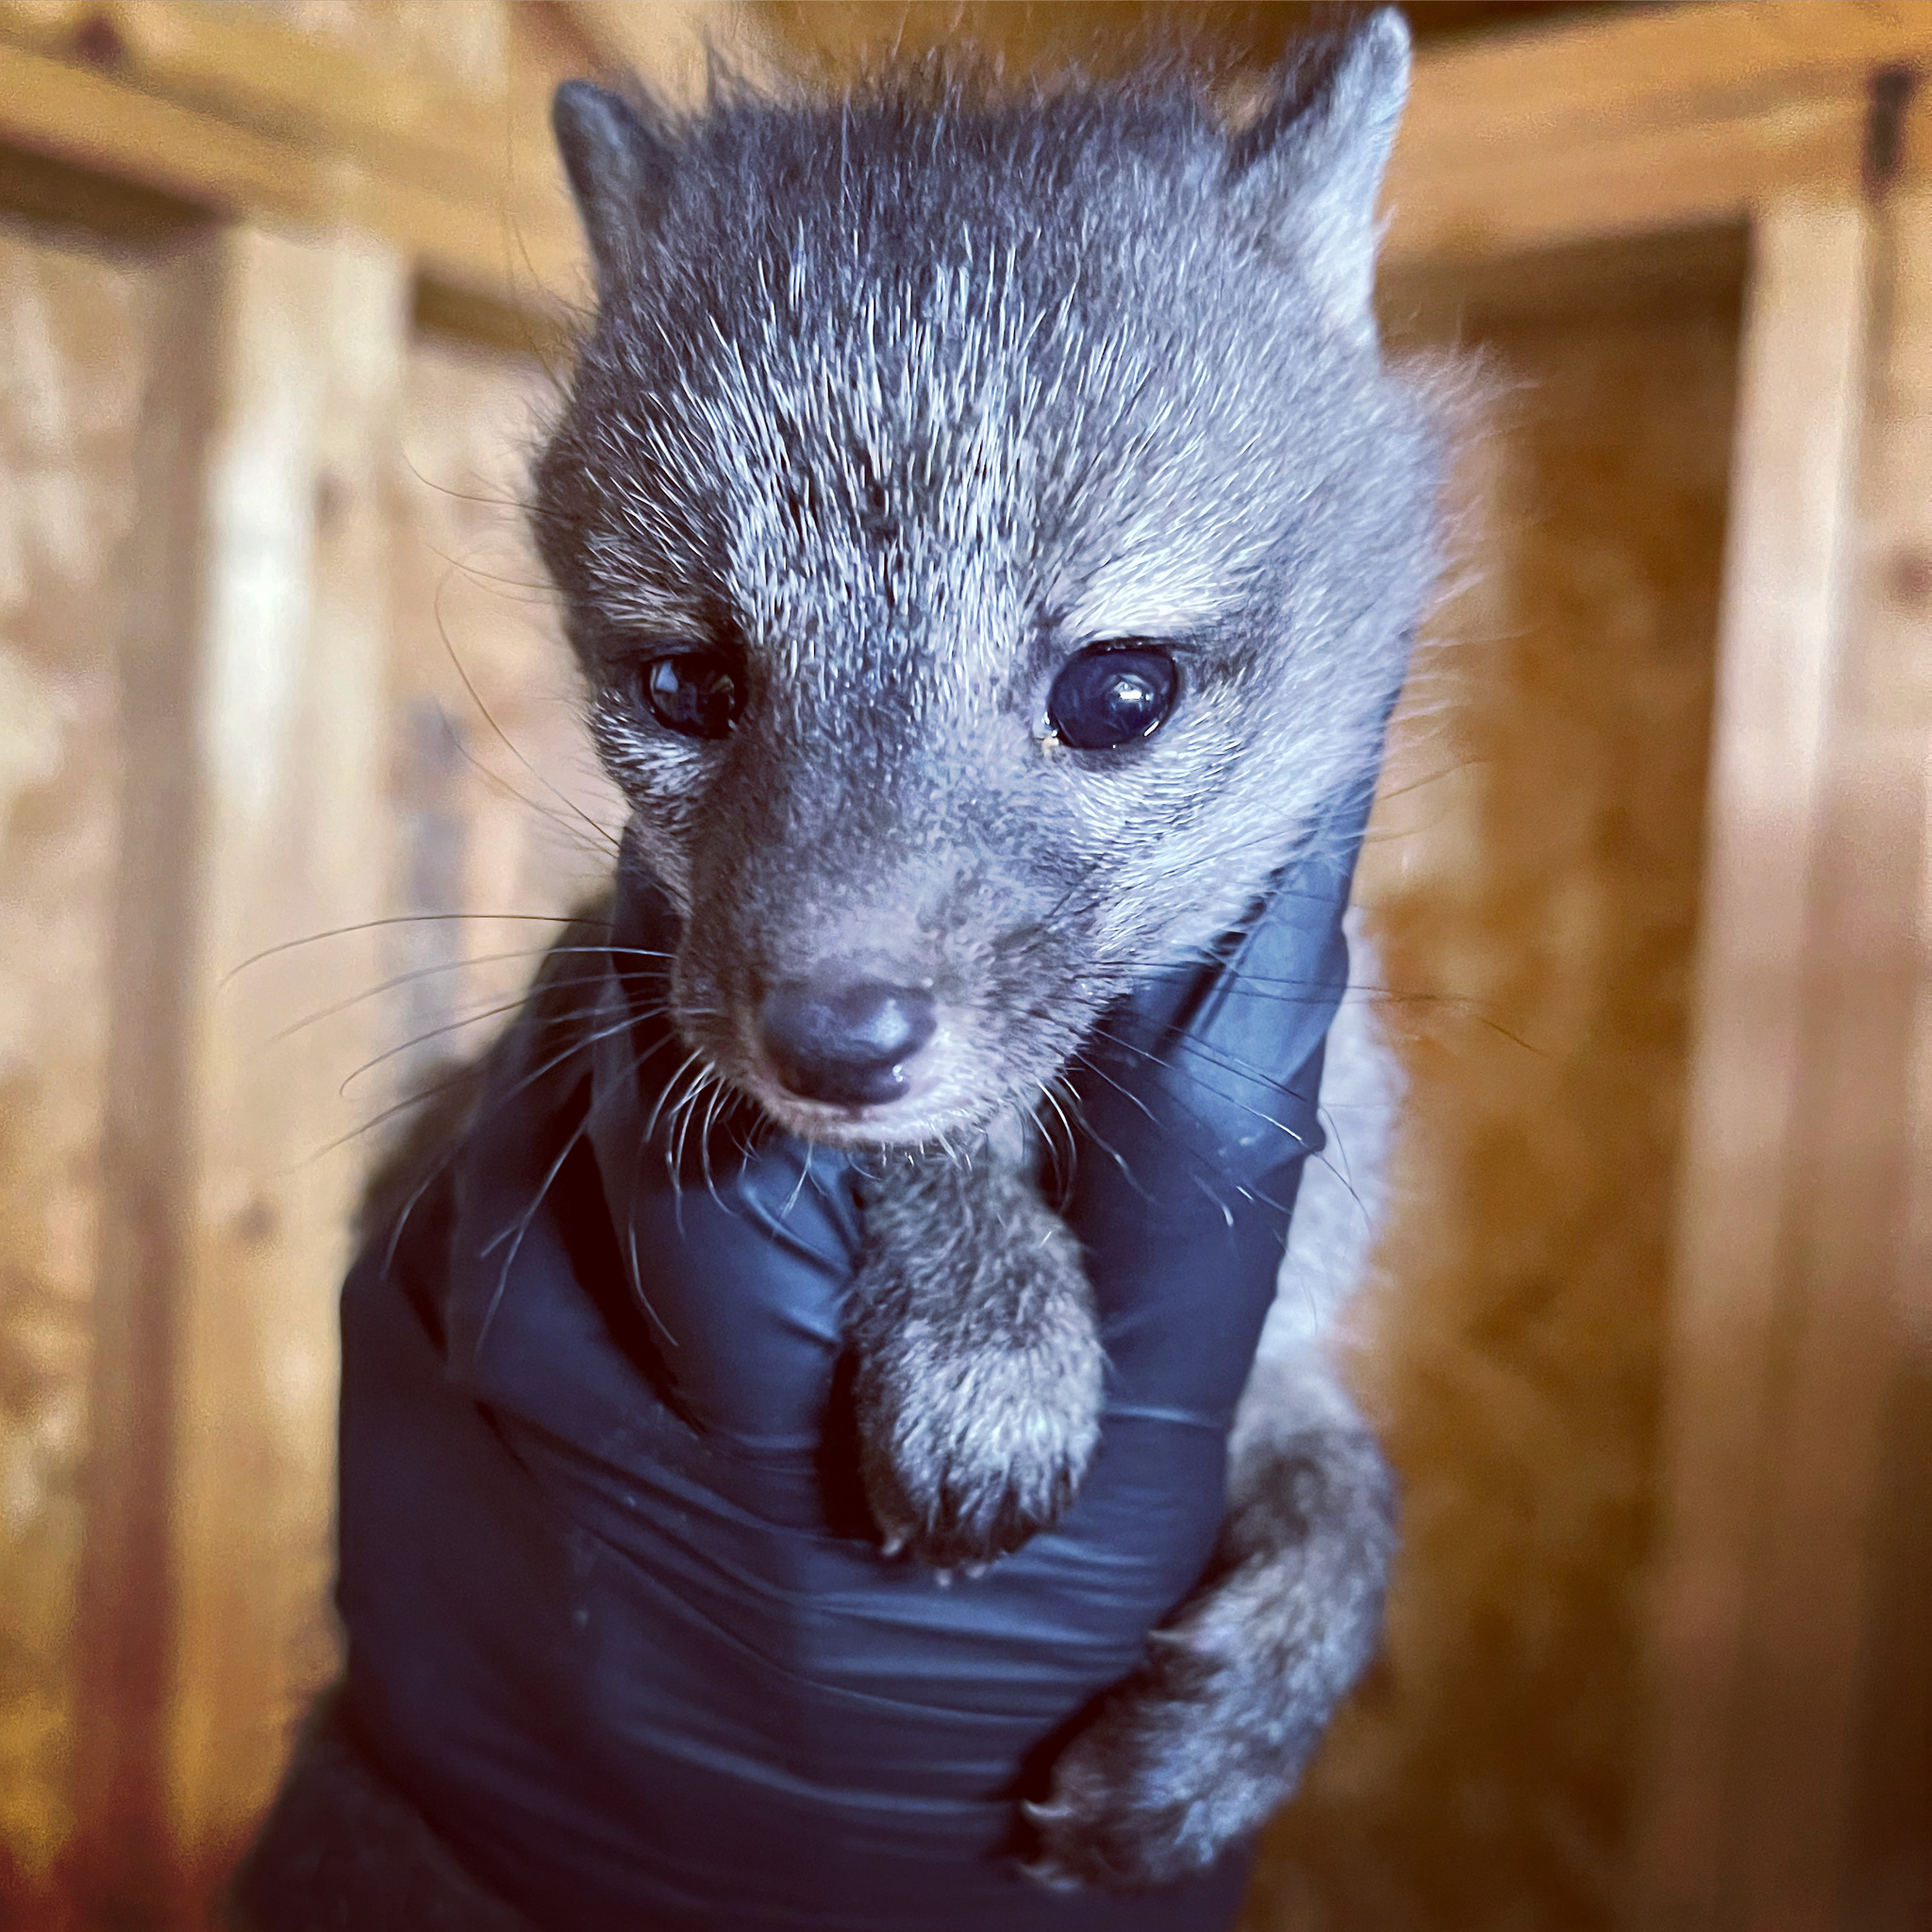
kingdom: Animalia
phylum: Chordata
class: Mammalia
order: Carnivora
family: Canidae
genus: Urocyon
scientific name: Urocyon cinereoargenteus
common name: Gray fox
